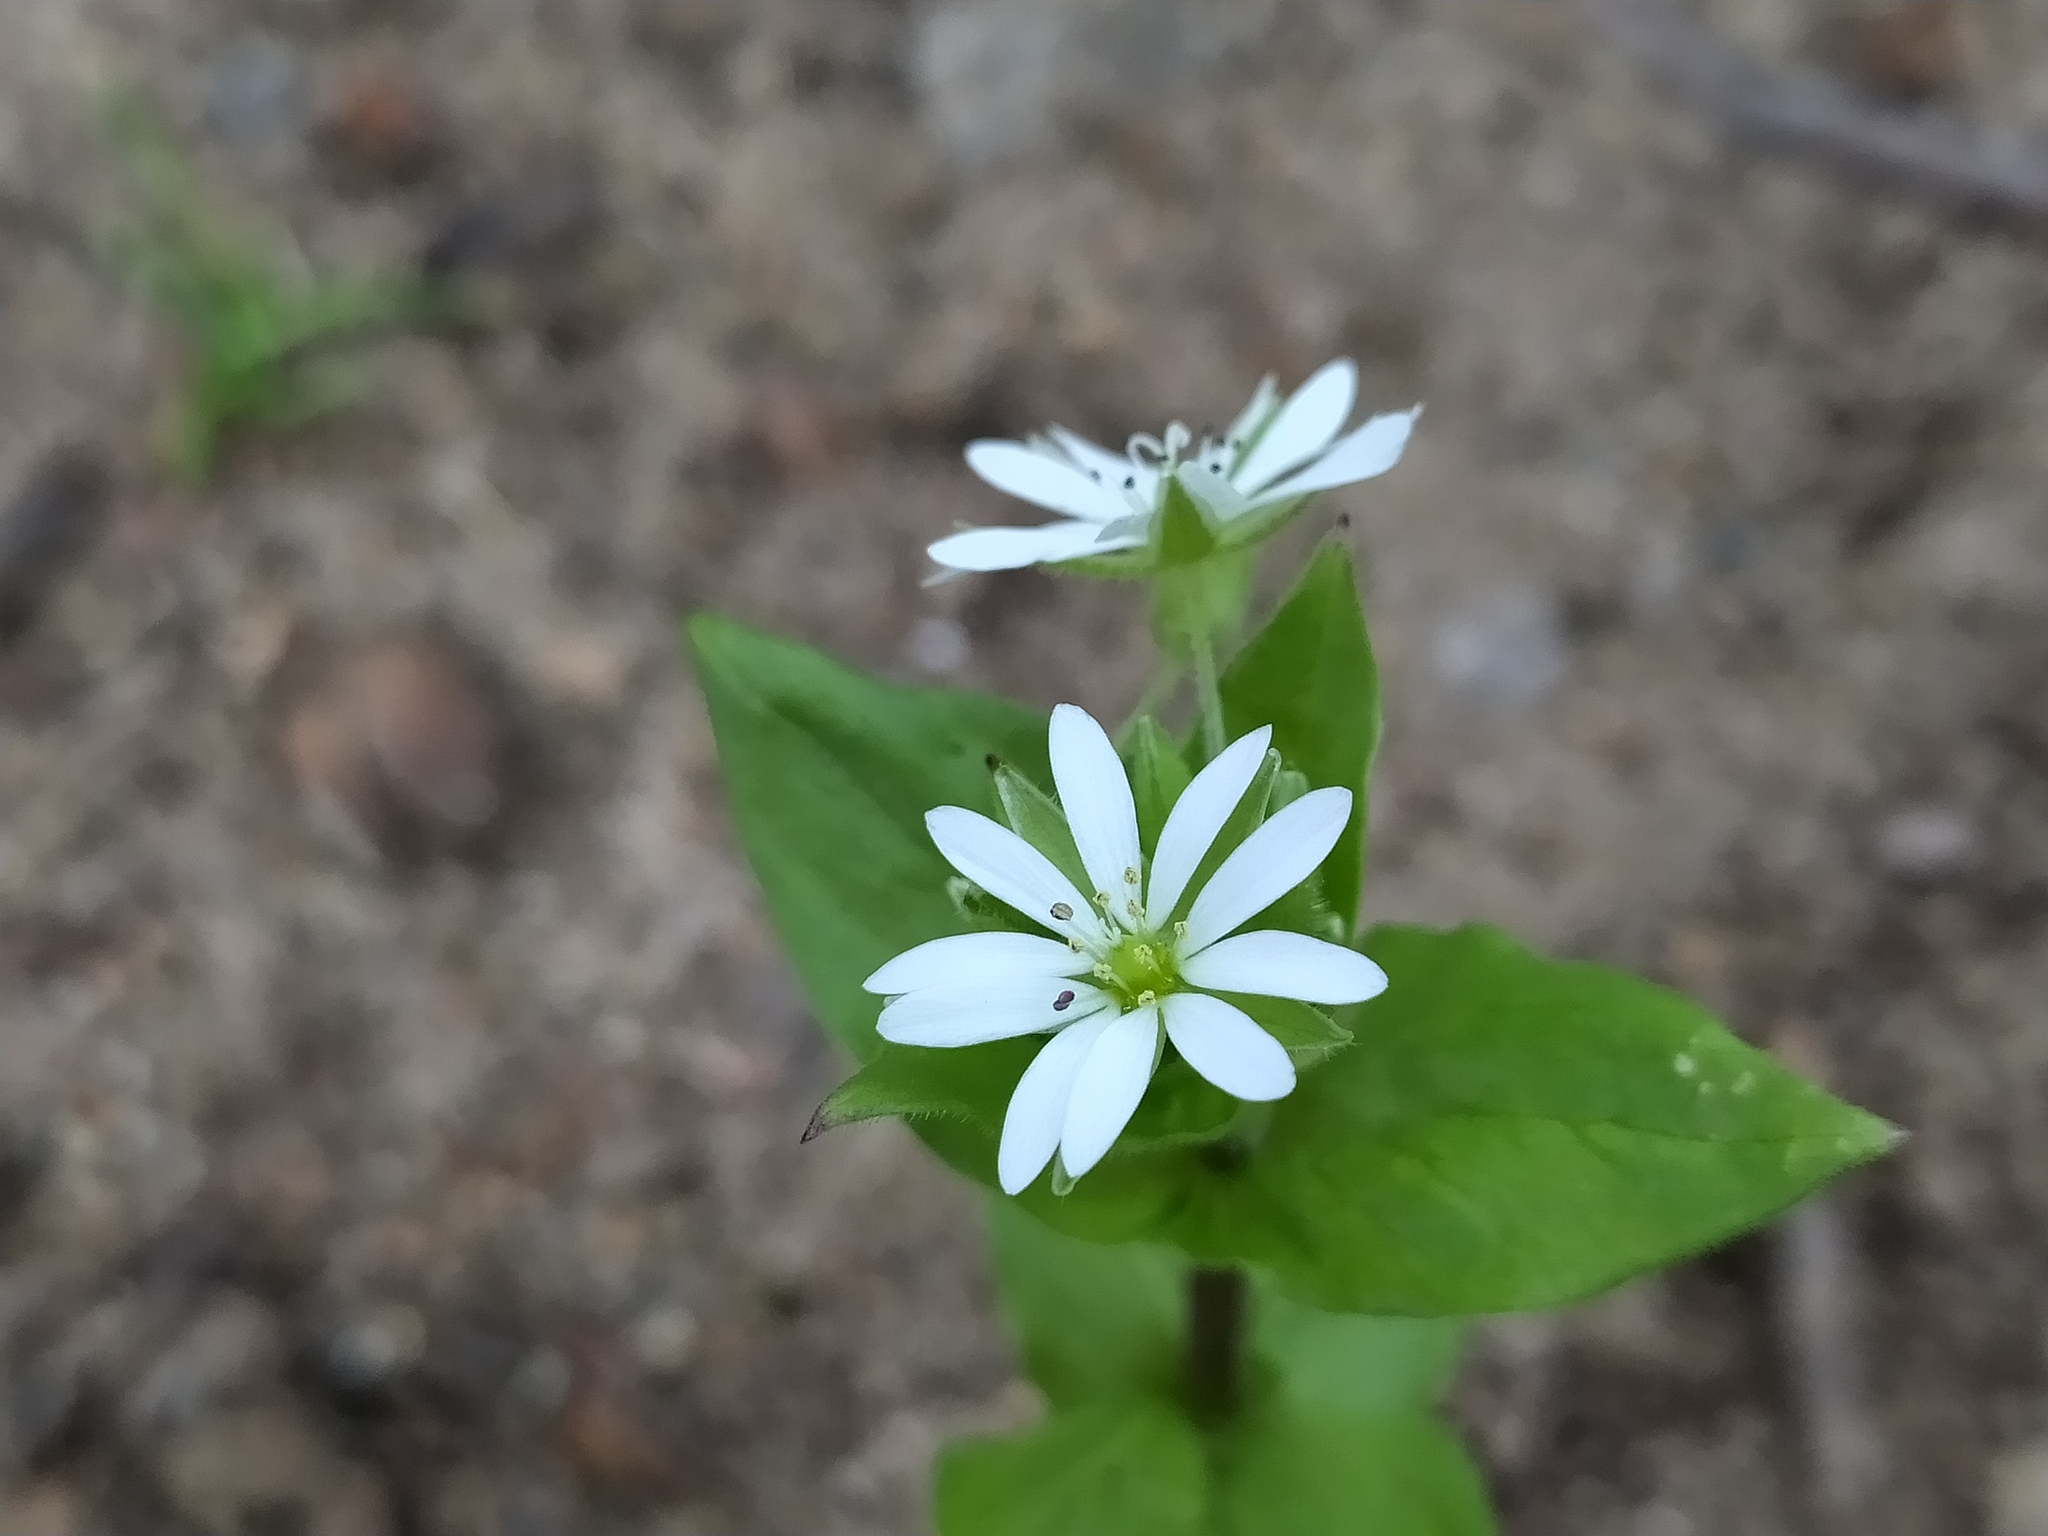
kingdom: Plantae
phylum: Tracheophyta
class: Magnoliopsida
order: Caryophyllales
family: Caryophyllaceae
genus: Stellaria
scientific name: Stellaria aquatica
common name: Water chickweed
